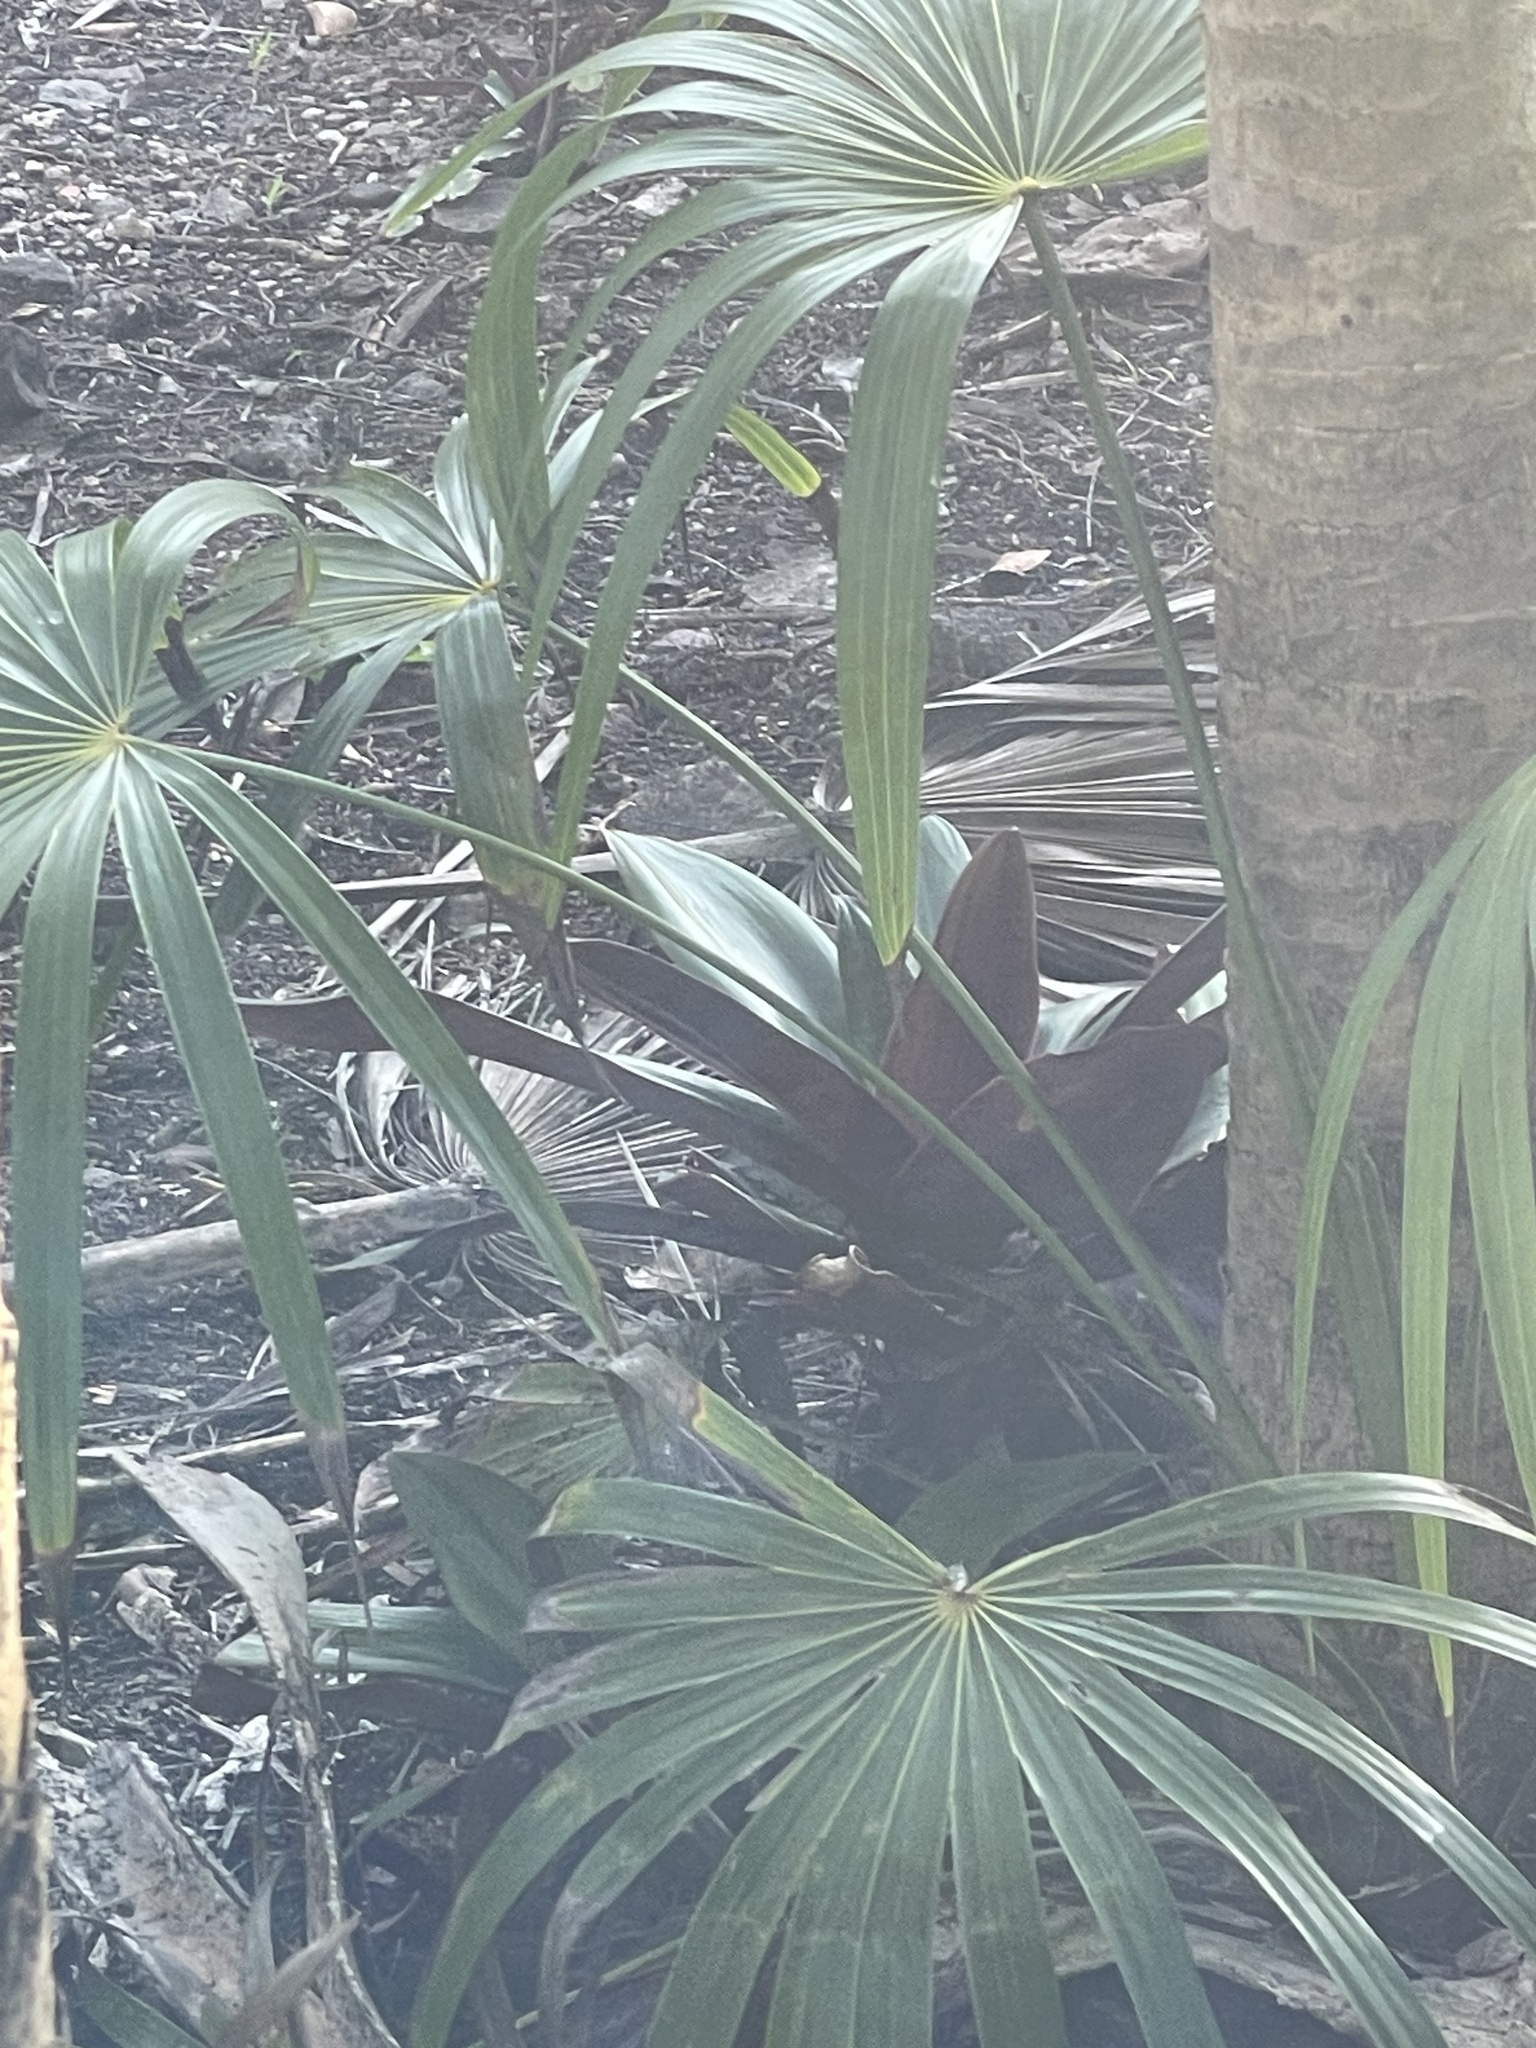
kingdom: Plantae
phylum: Tracheophyta
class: Liliopsida
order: Commelinales
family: Commelinaceae
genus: Tradescantia
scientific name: Tradescantia spathacea
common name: Boatlily
